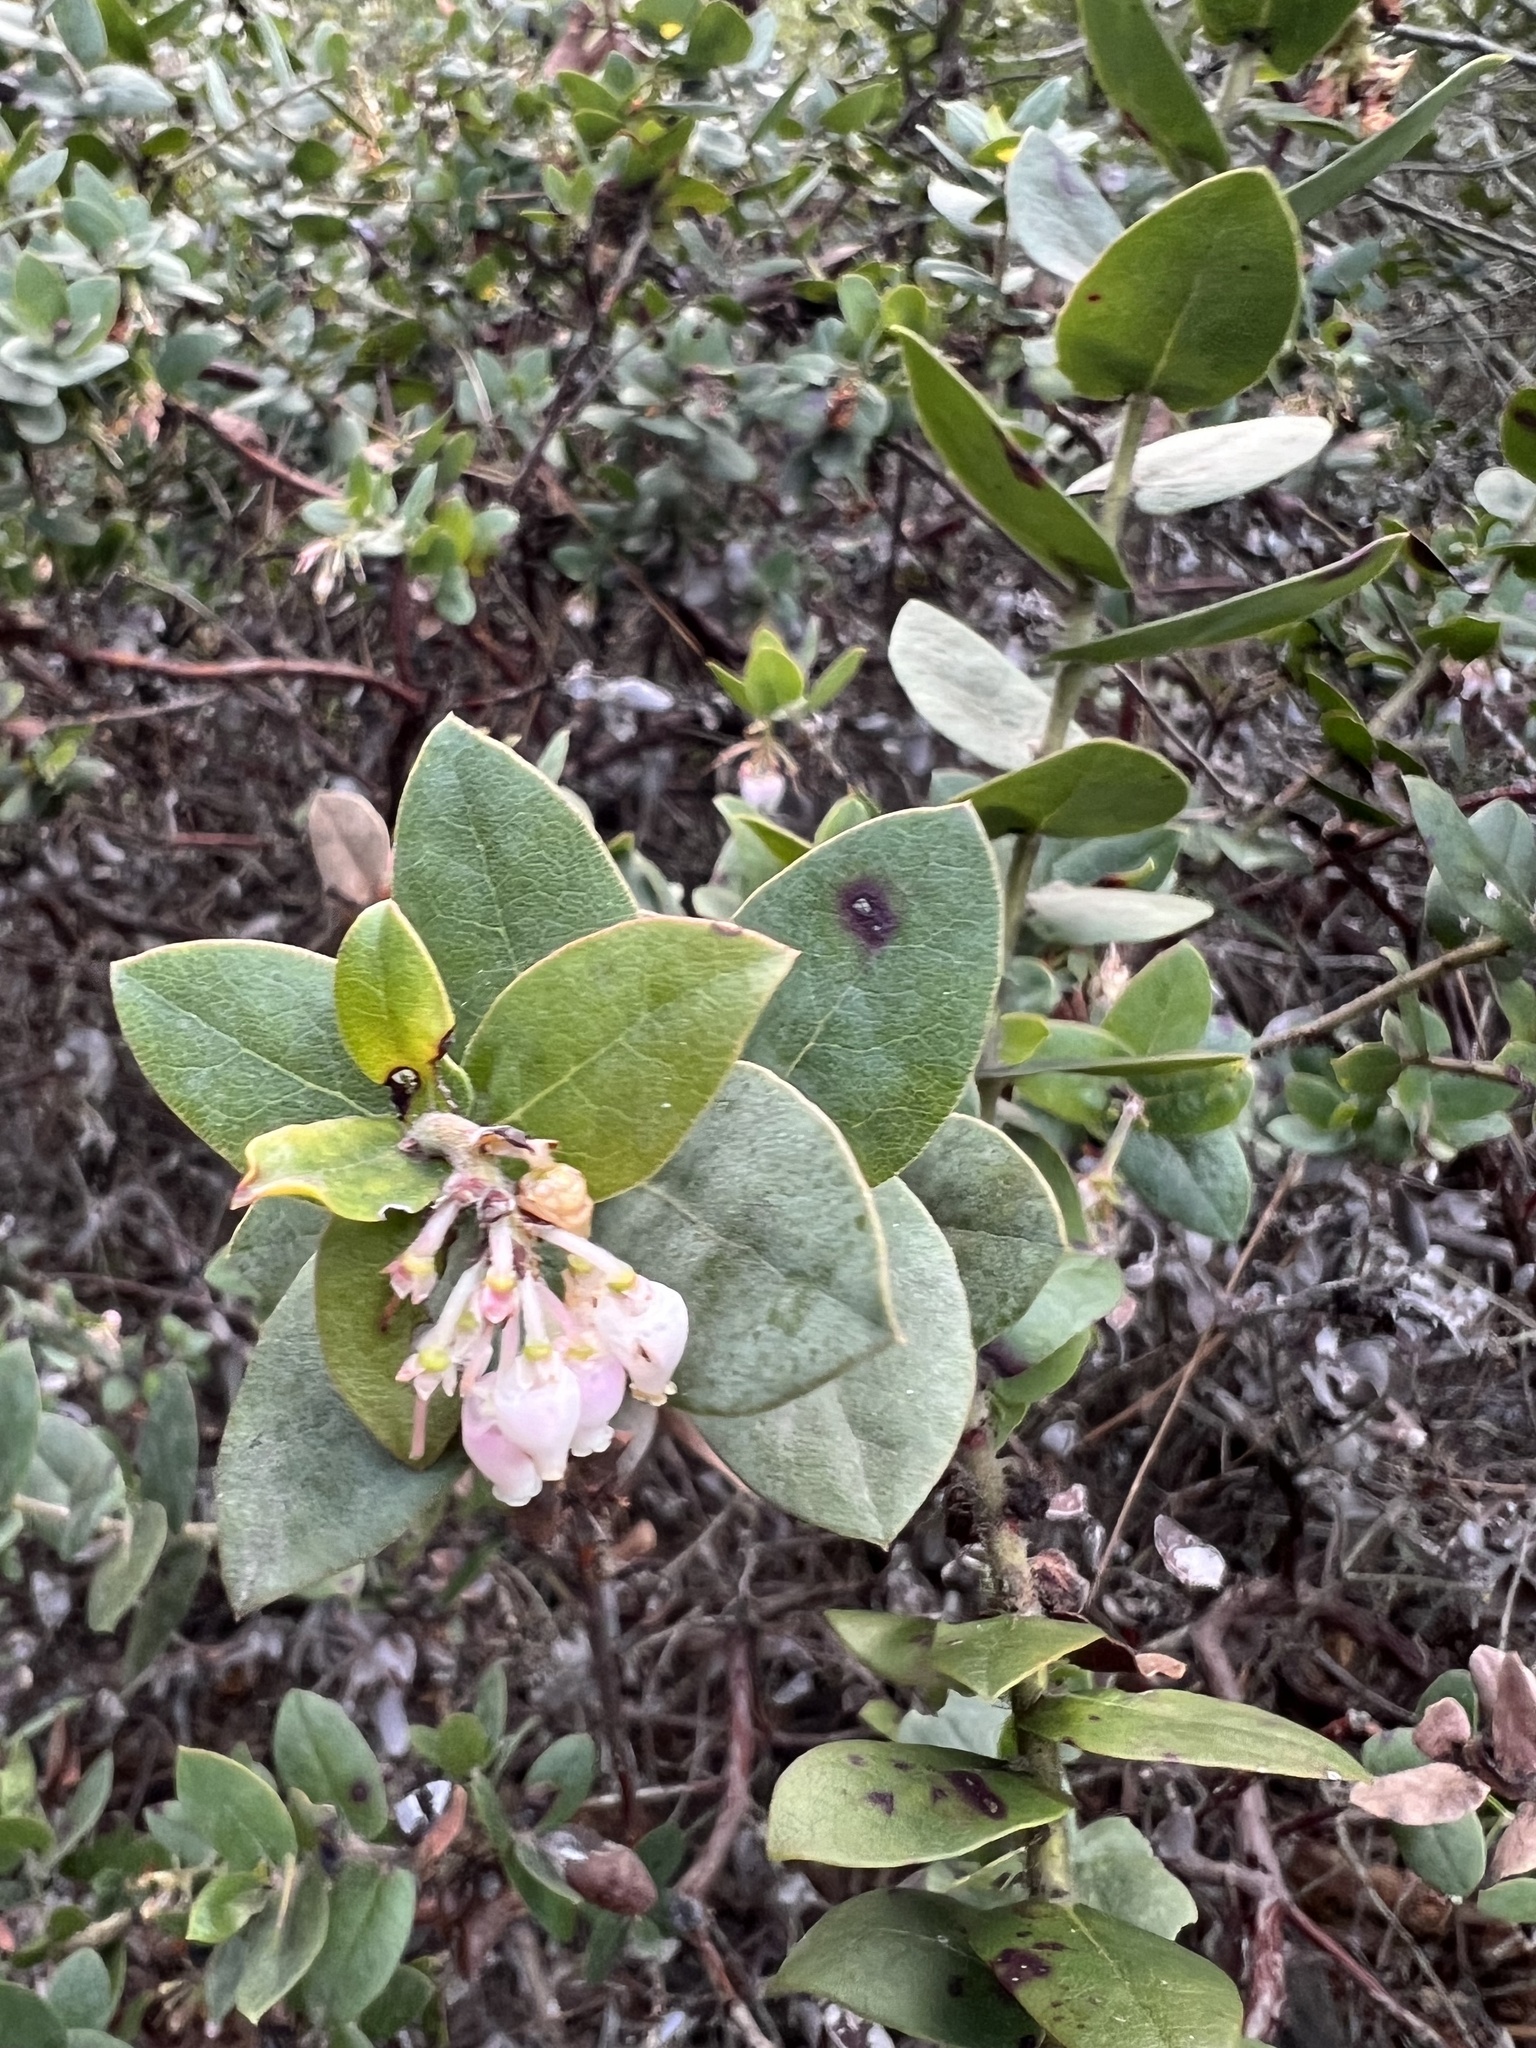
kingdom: Plantae
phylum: Tracheophyta
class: Magnoliopsida
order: Ericales
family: Ericaceae
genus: Arctostaphylos
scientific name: Arctostaphylos pajaroensis
